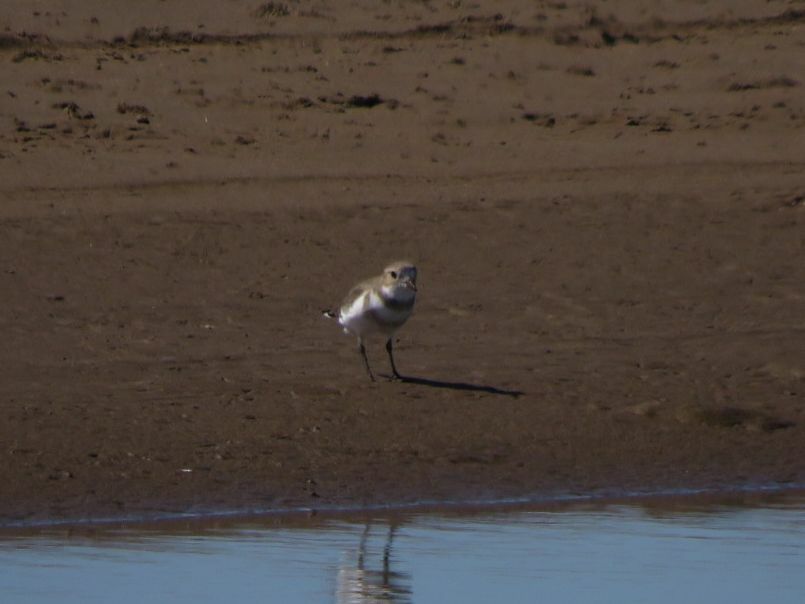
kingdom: Animalia
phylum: Chordata
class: Aves
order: Charadriiformes
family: Charadriidae
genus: Anarhynchus
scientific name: Anarhynchus
